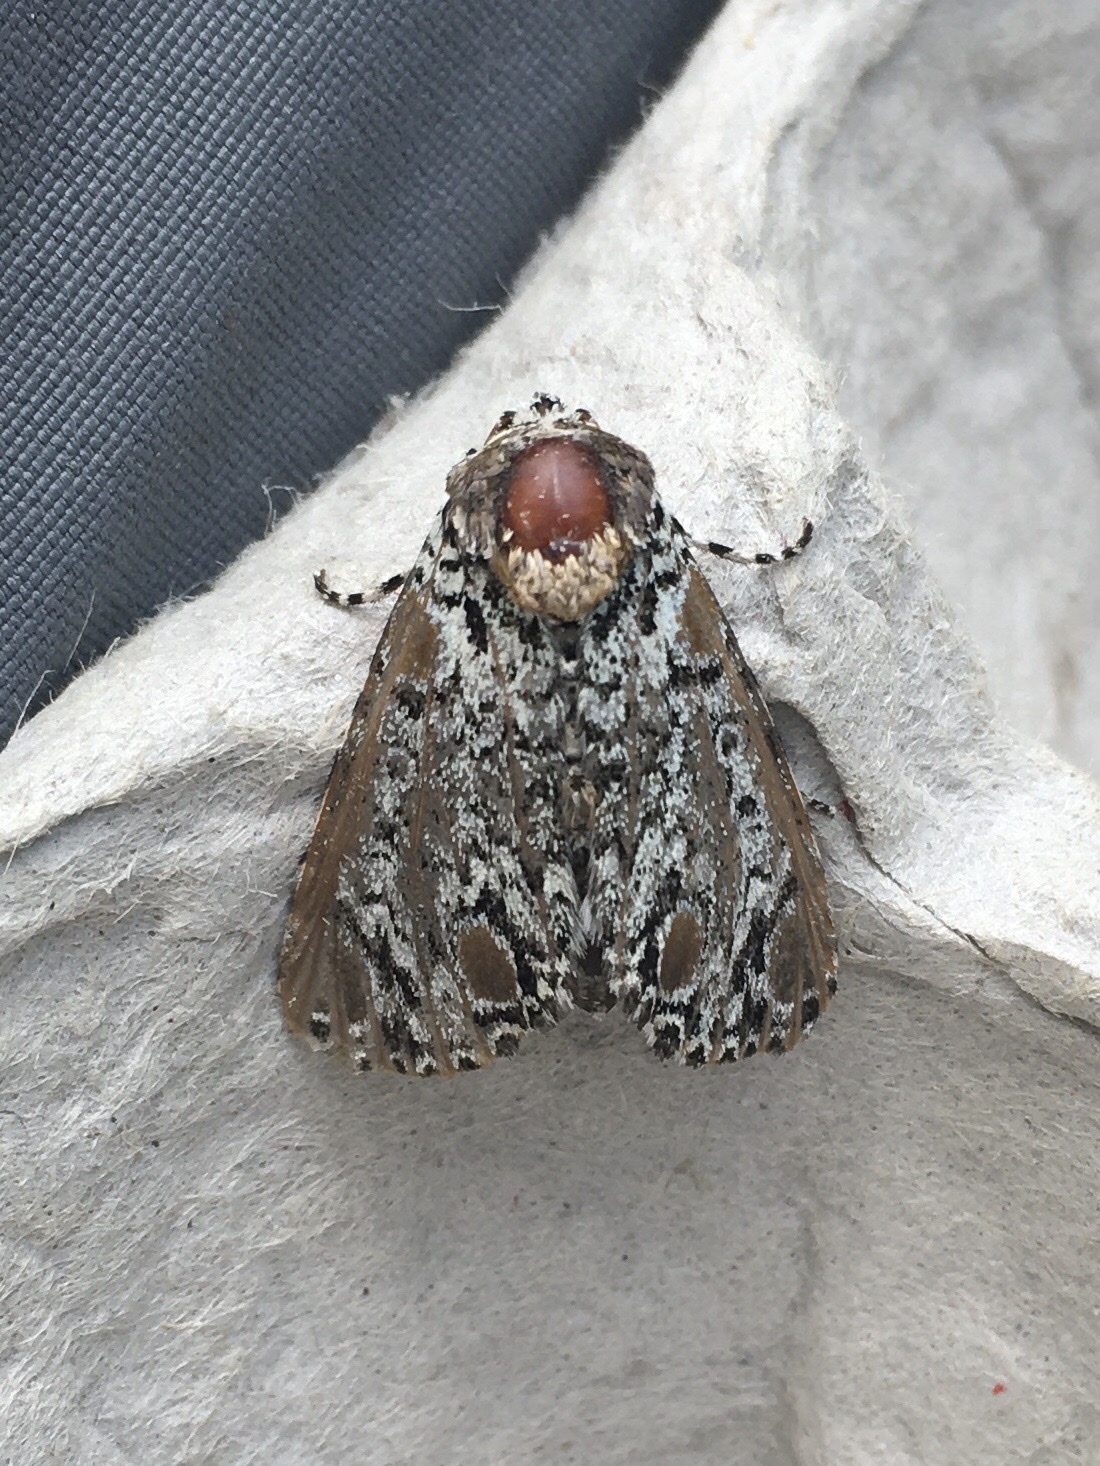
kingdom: Animalia
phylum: Arthropoda
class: Insecta
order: Lepidoptera
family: Noctuidae
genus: Harrisimemna
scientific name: Harrisimemna trisignata
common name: Harris threespot
